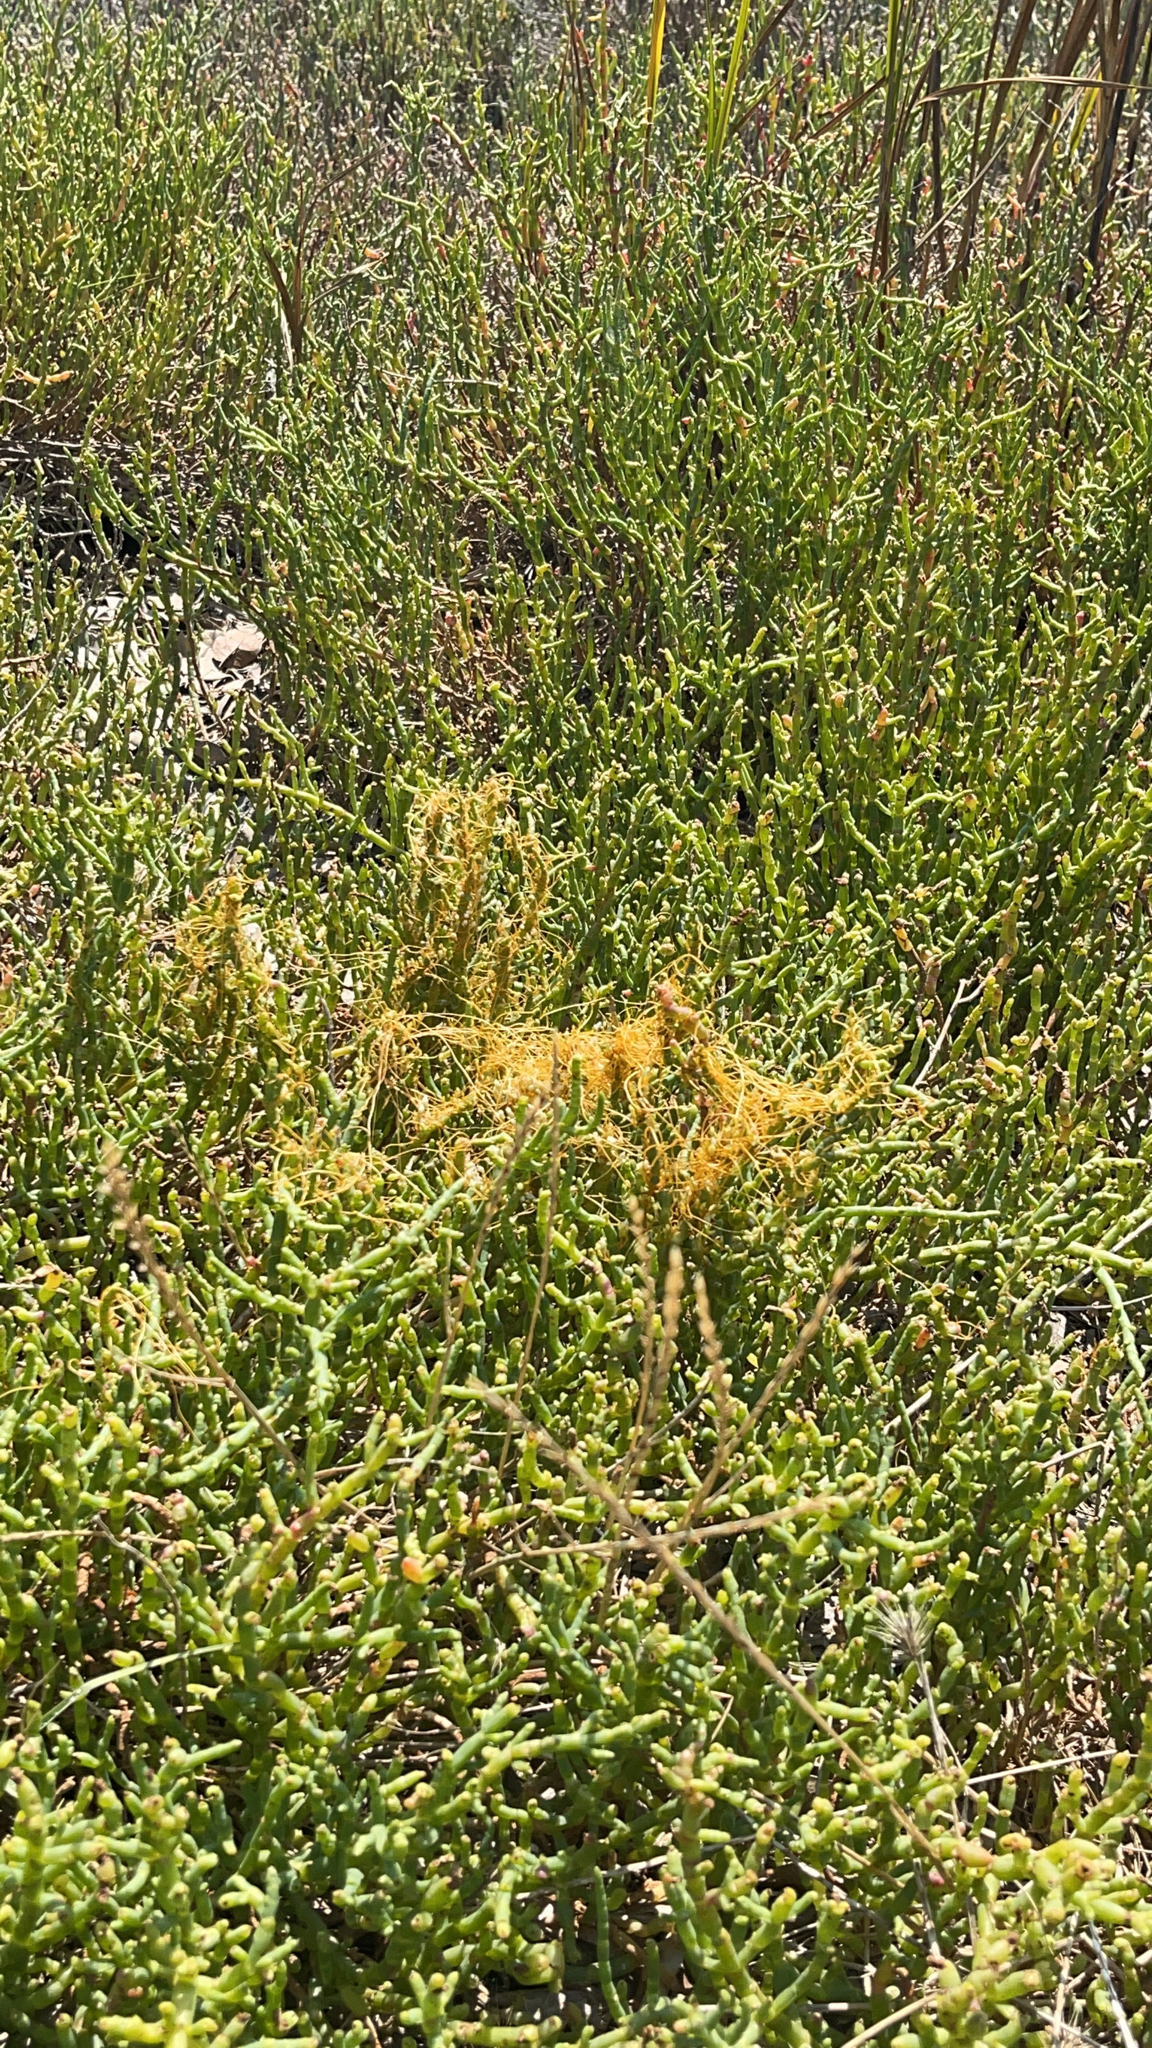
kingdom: Plantae
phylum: Tracheophyta
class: Magnoliopsida
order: Solanales
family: Convolvulaceae
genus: Cuscuta
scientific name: Cuscuta pacifica
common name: Large saltmarsh dodder
